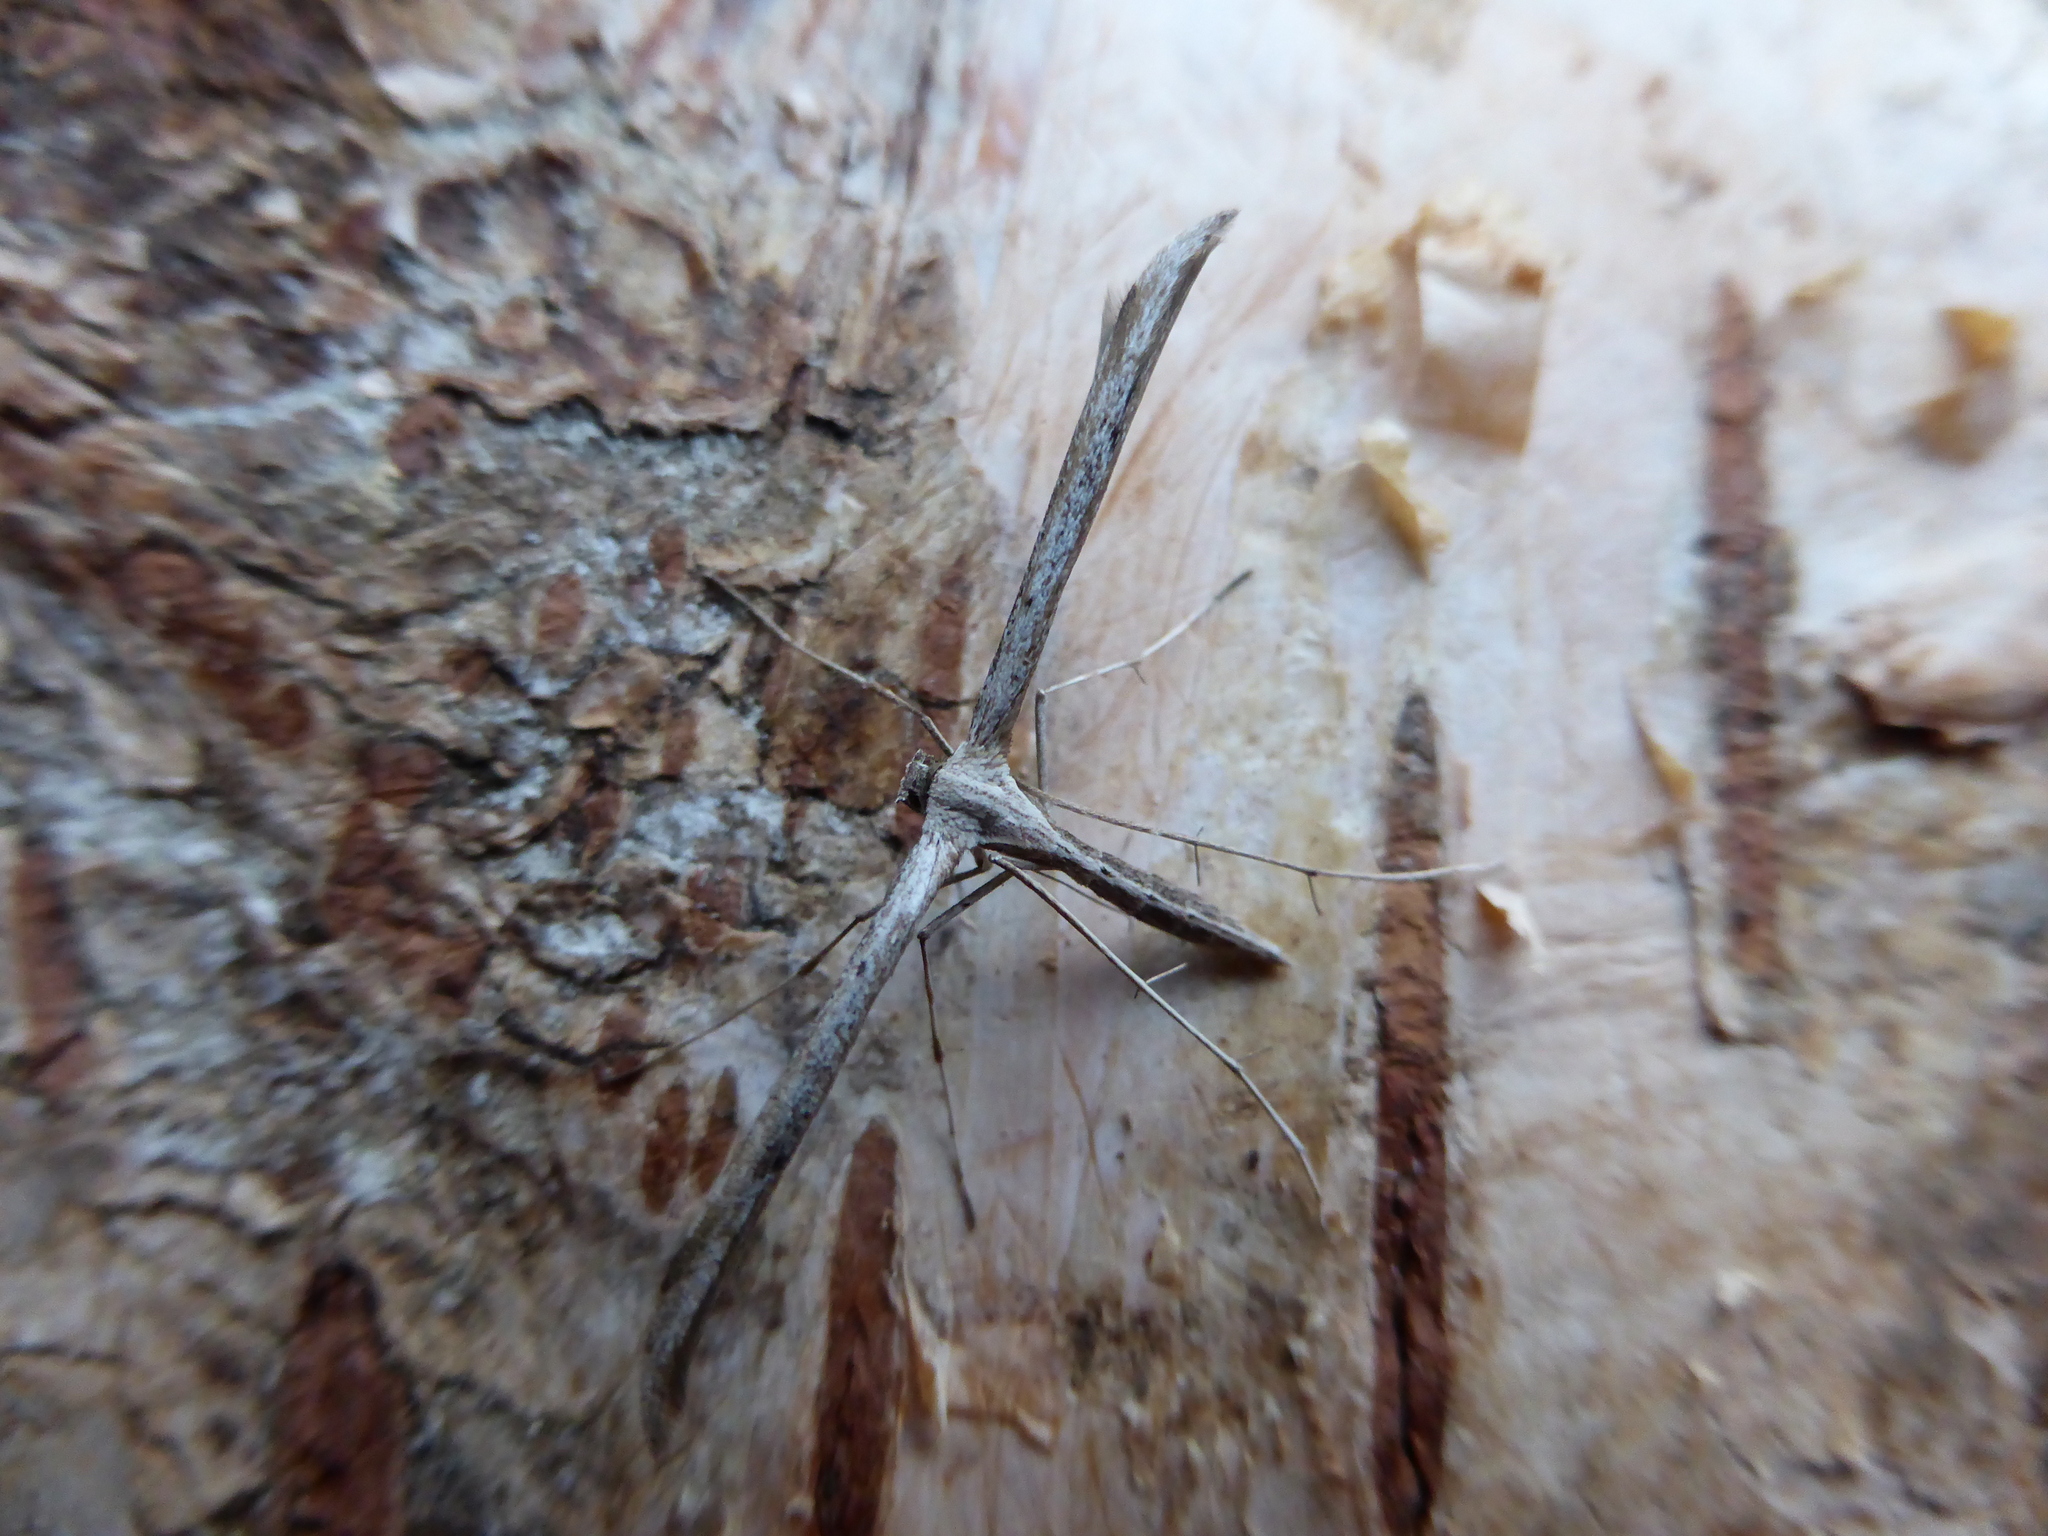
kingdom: Animalia
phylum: Arthropoda
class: Insecta
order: Lepidoptera
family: Pterophoridae
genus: Emmelina
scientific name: Emmelina monodactyla
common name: Common plume
